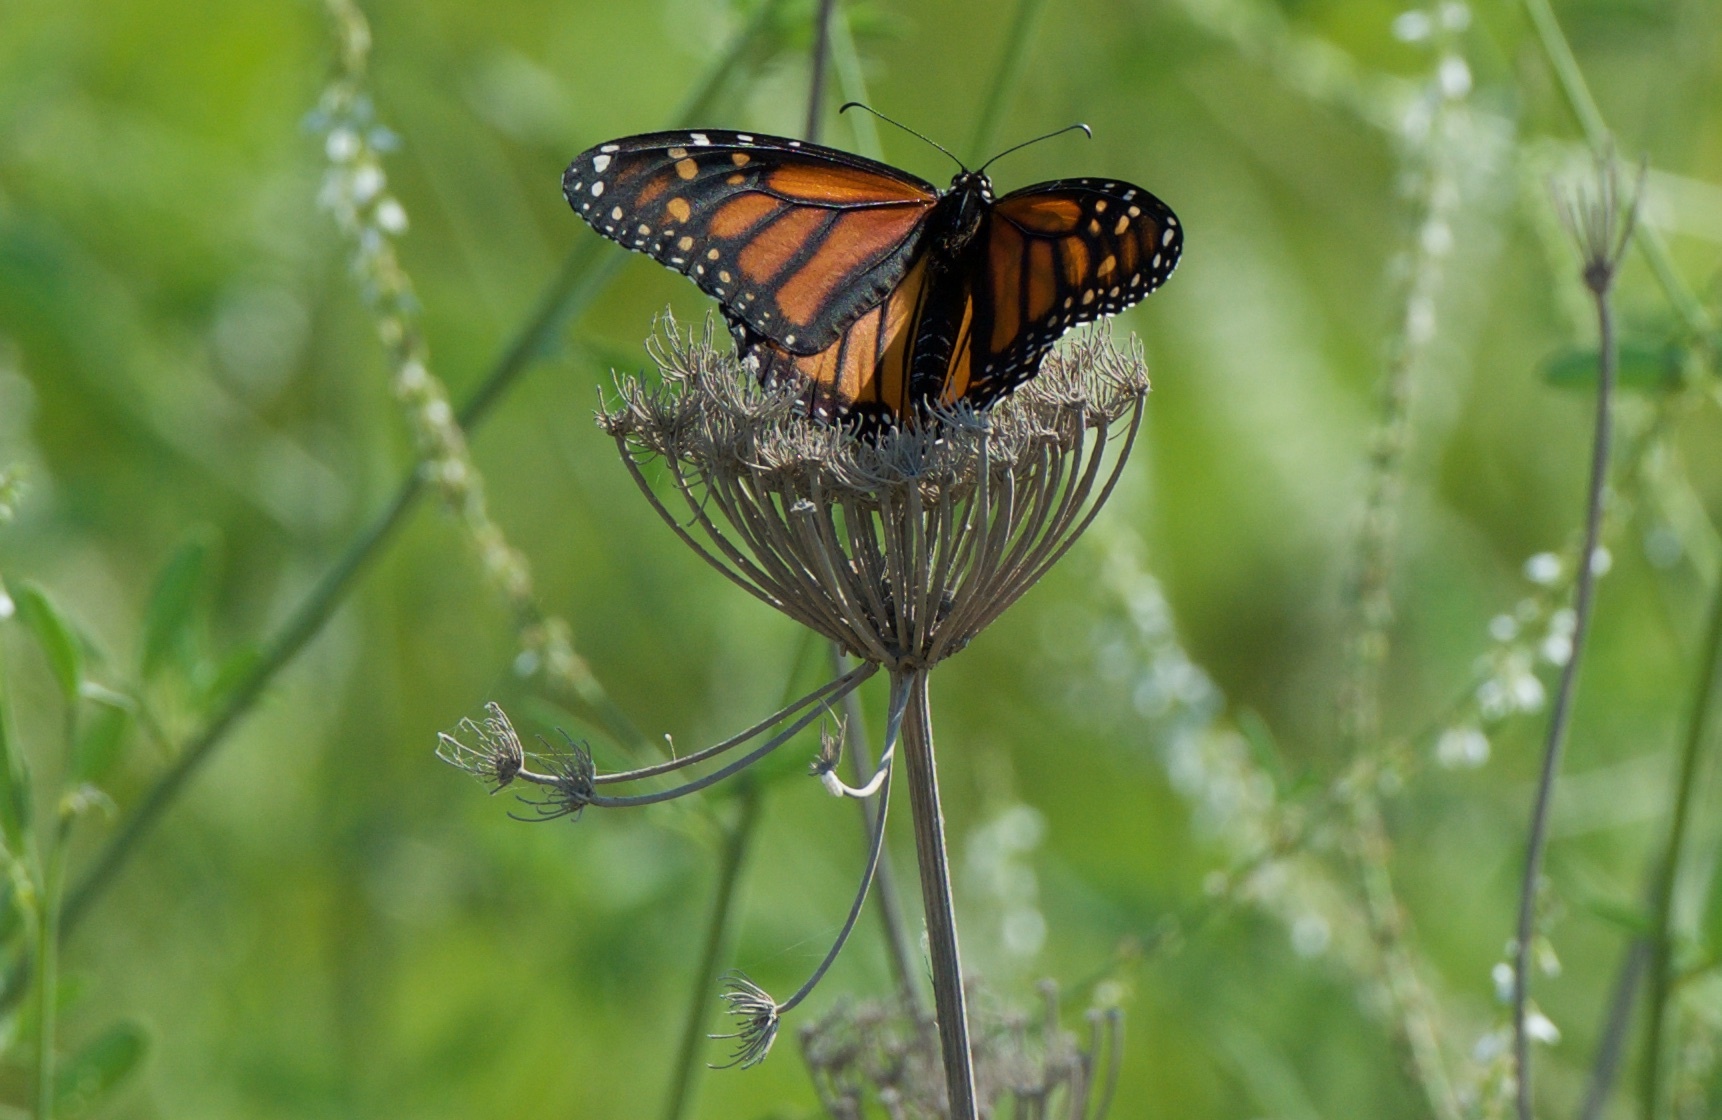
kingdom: Animalia
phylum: Arthropoda
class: Insecta
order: Lepidoptera
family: Nymphalidae
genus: Danaus
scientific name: Danaus plexippus
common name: Monarch
